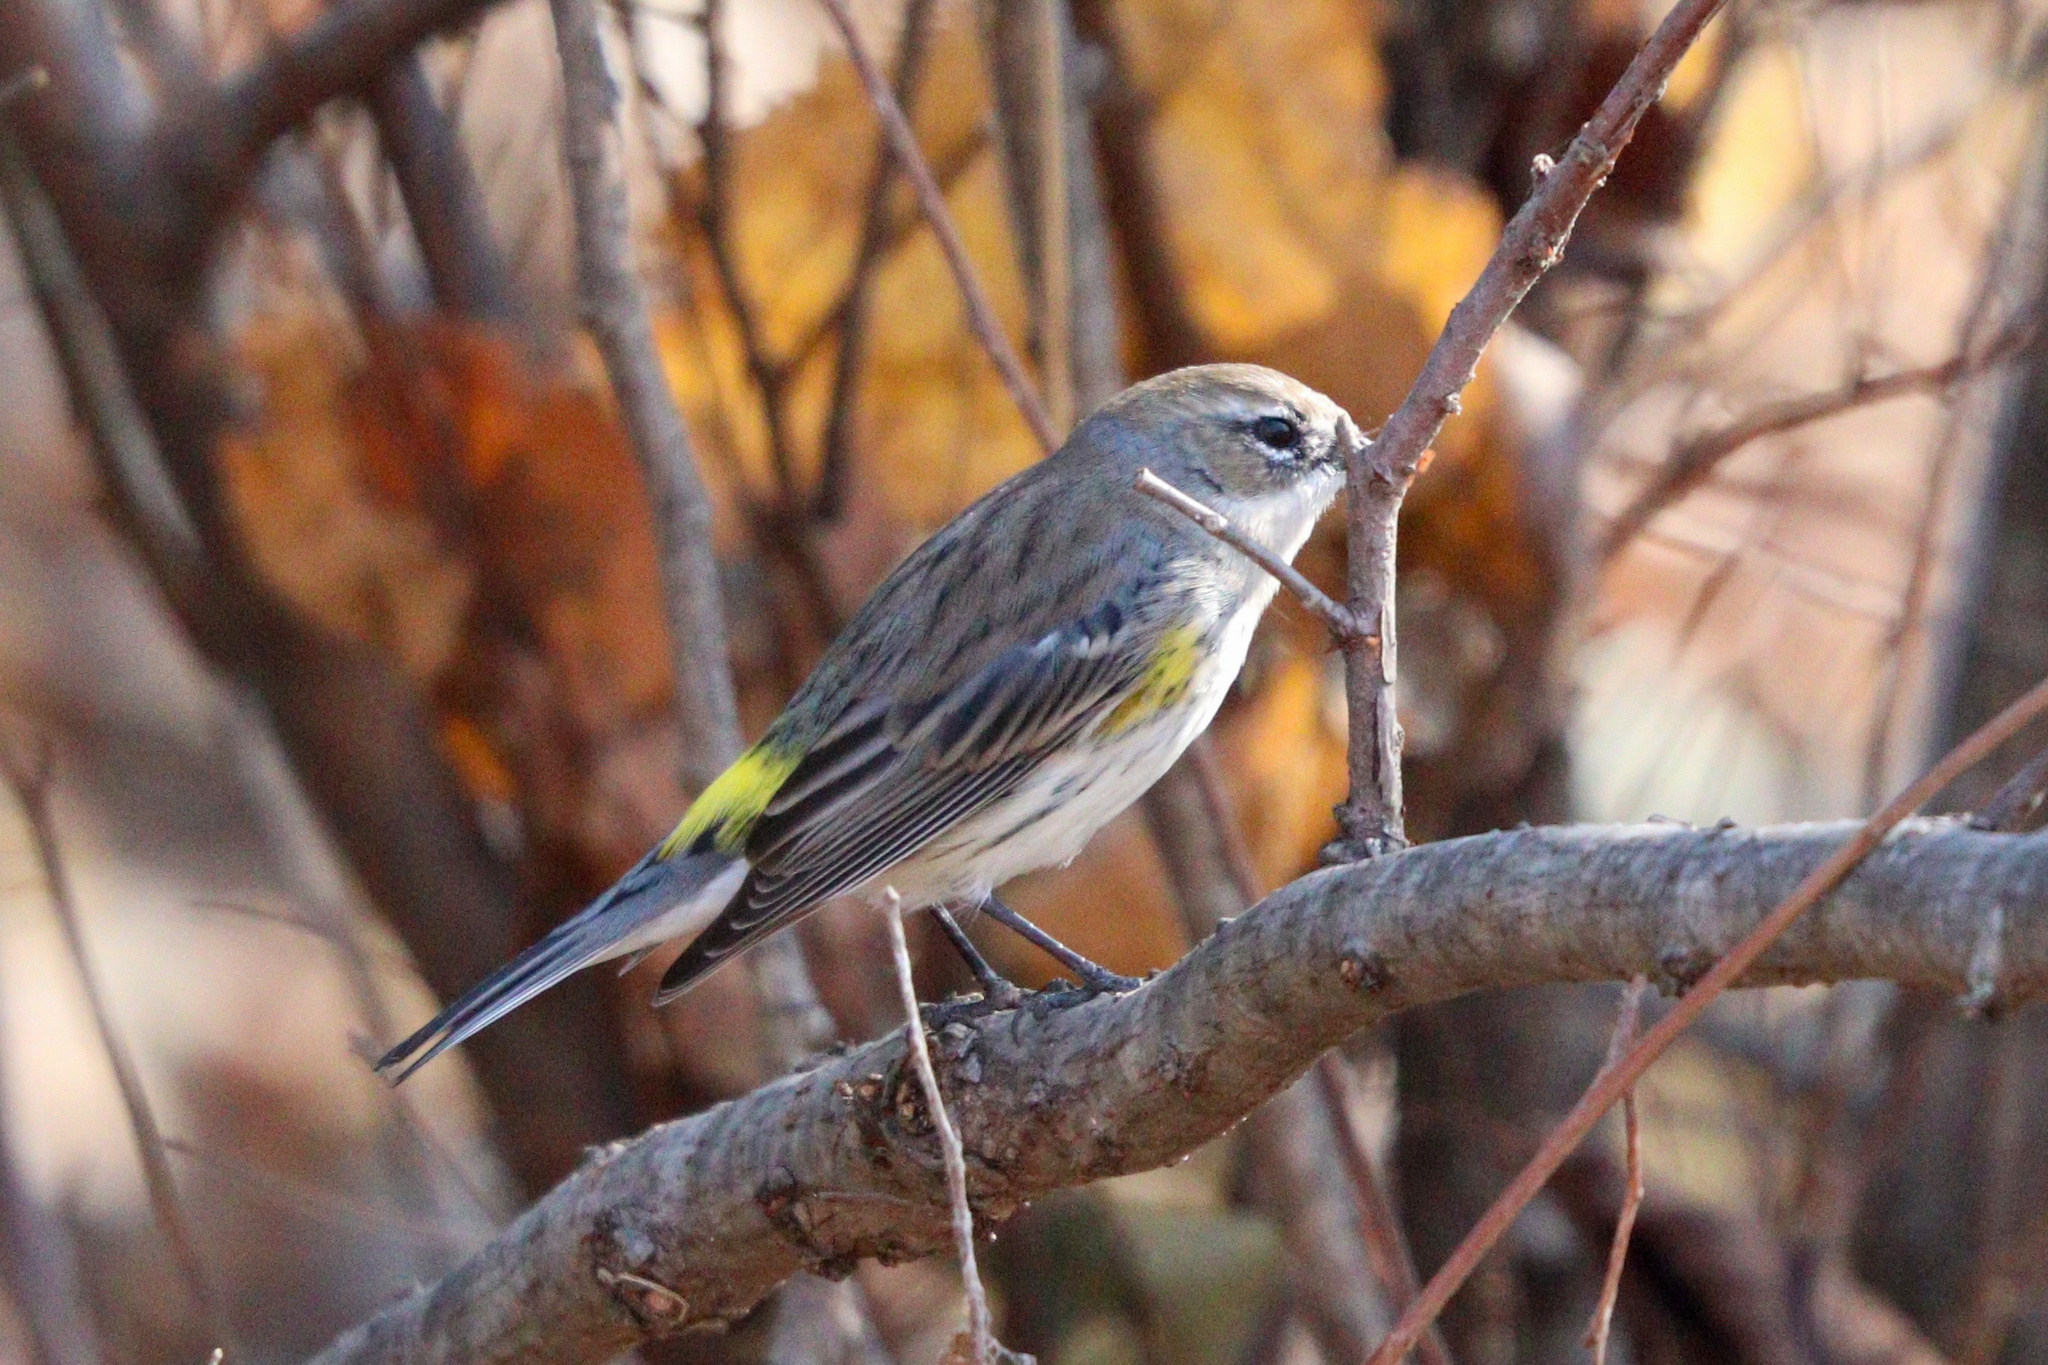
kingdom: Animalia
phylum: Chordata
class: Aves
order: Passeriformes
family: Parulidae
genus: Setophaga
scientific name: Setophaga coronata
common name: Myrtle warbler
